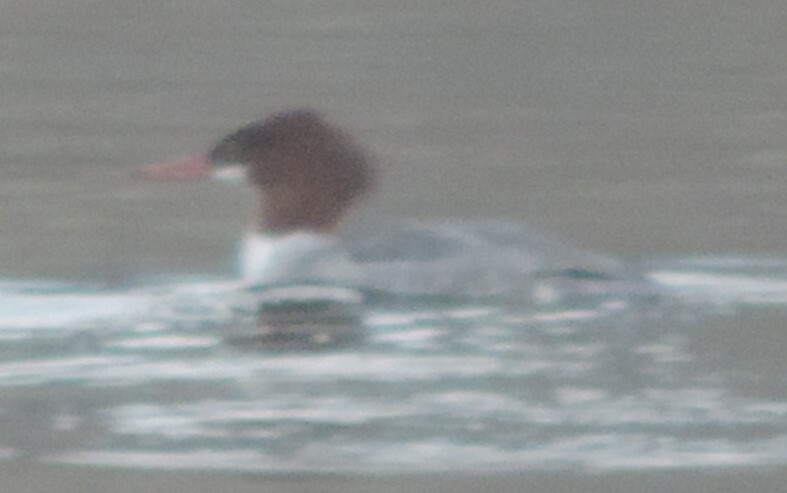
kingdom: Animalia
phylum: Chordata
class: Aves
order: Anseriformes
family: Anatidae
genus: Mergus
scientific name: Mergus merganser
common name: Common merganser
